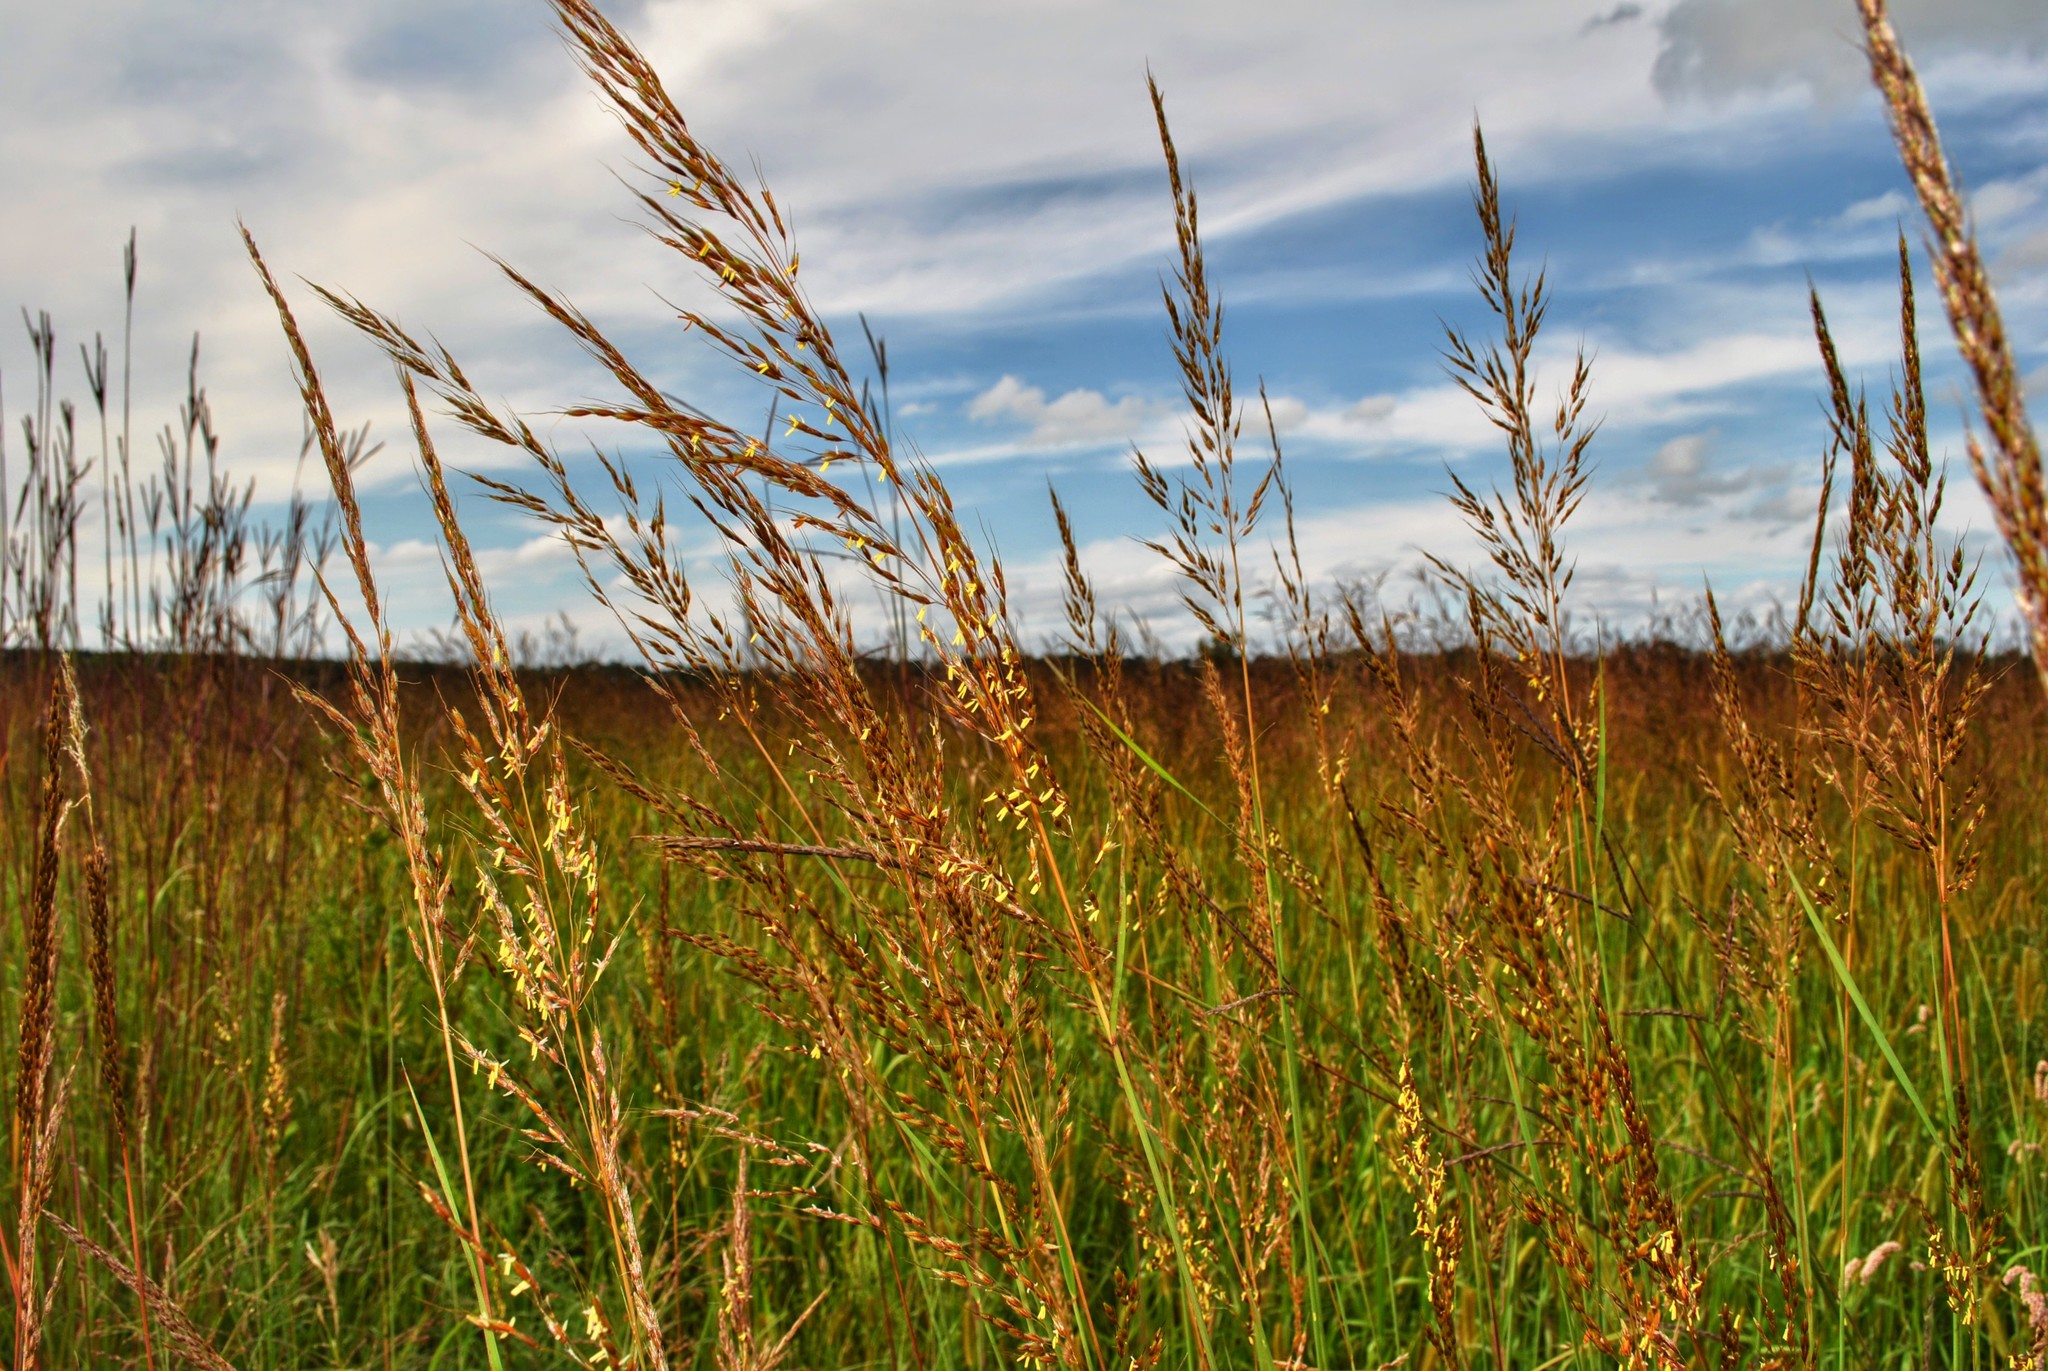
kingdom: Plantae
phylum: Tracheophyta
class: Liliopsida
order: Poales
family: Poaceae
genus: Sorghastrum
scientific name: Sorghastrum nutans
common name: Indian grass
